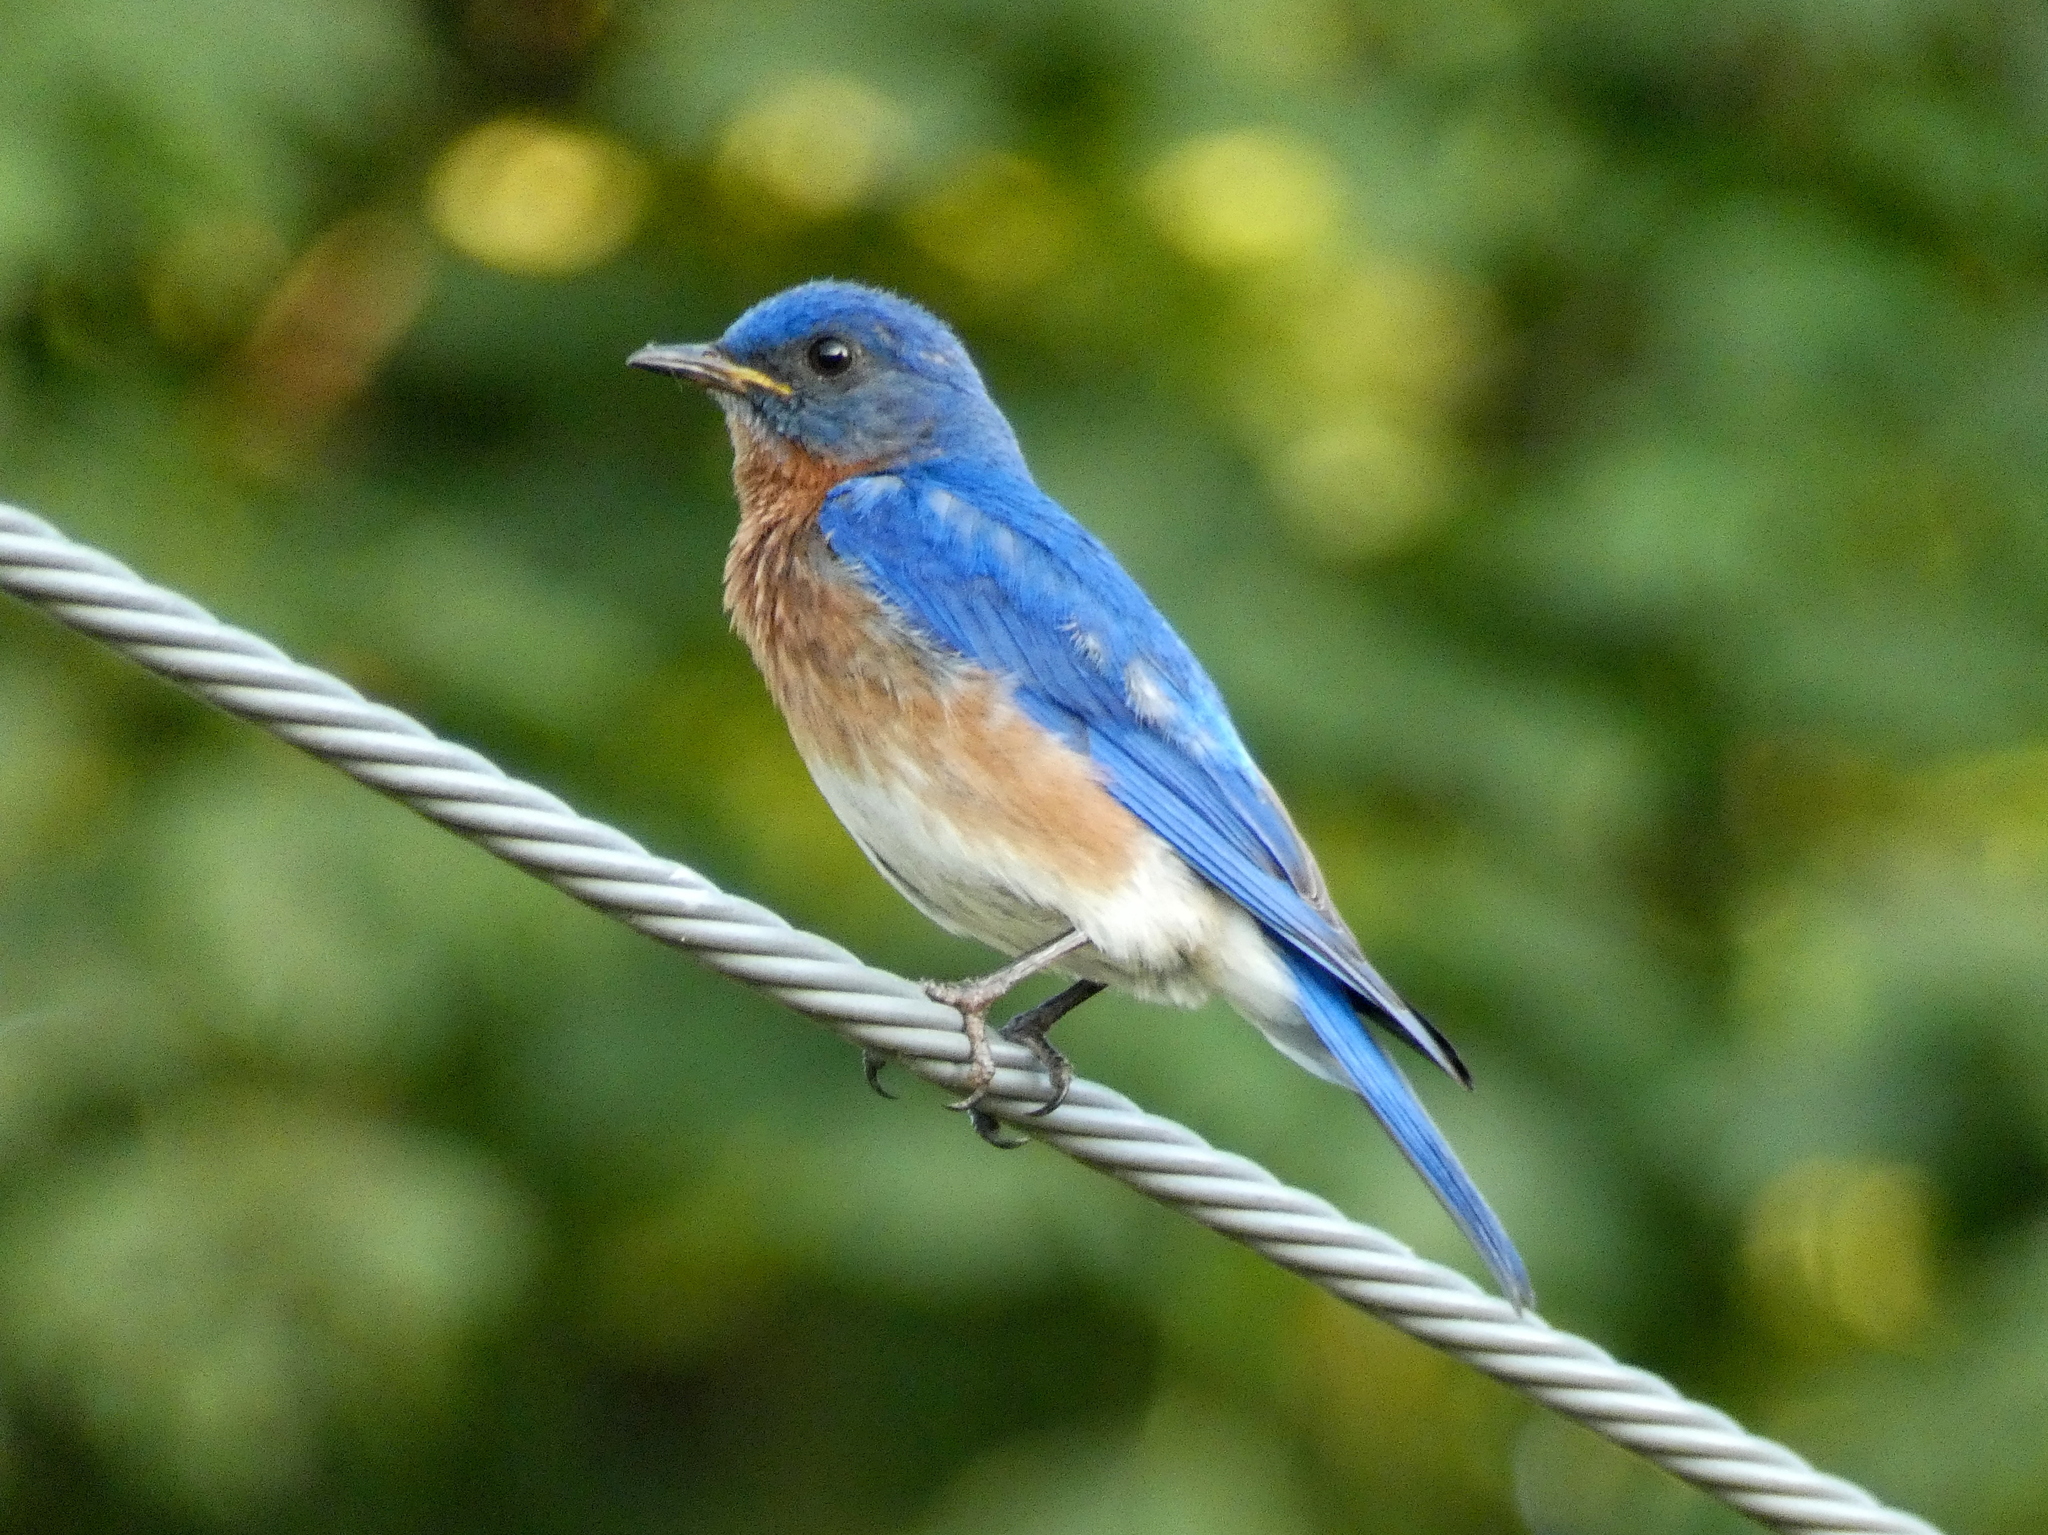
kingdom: Animalia
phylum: Chordata
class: Aves
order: Passeriformes
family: Turdidae
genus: Sialia
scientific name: Sialia sialis
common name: Eastern bluebird
